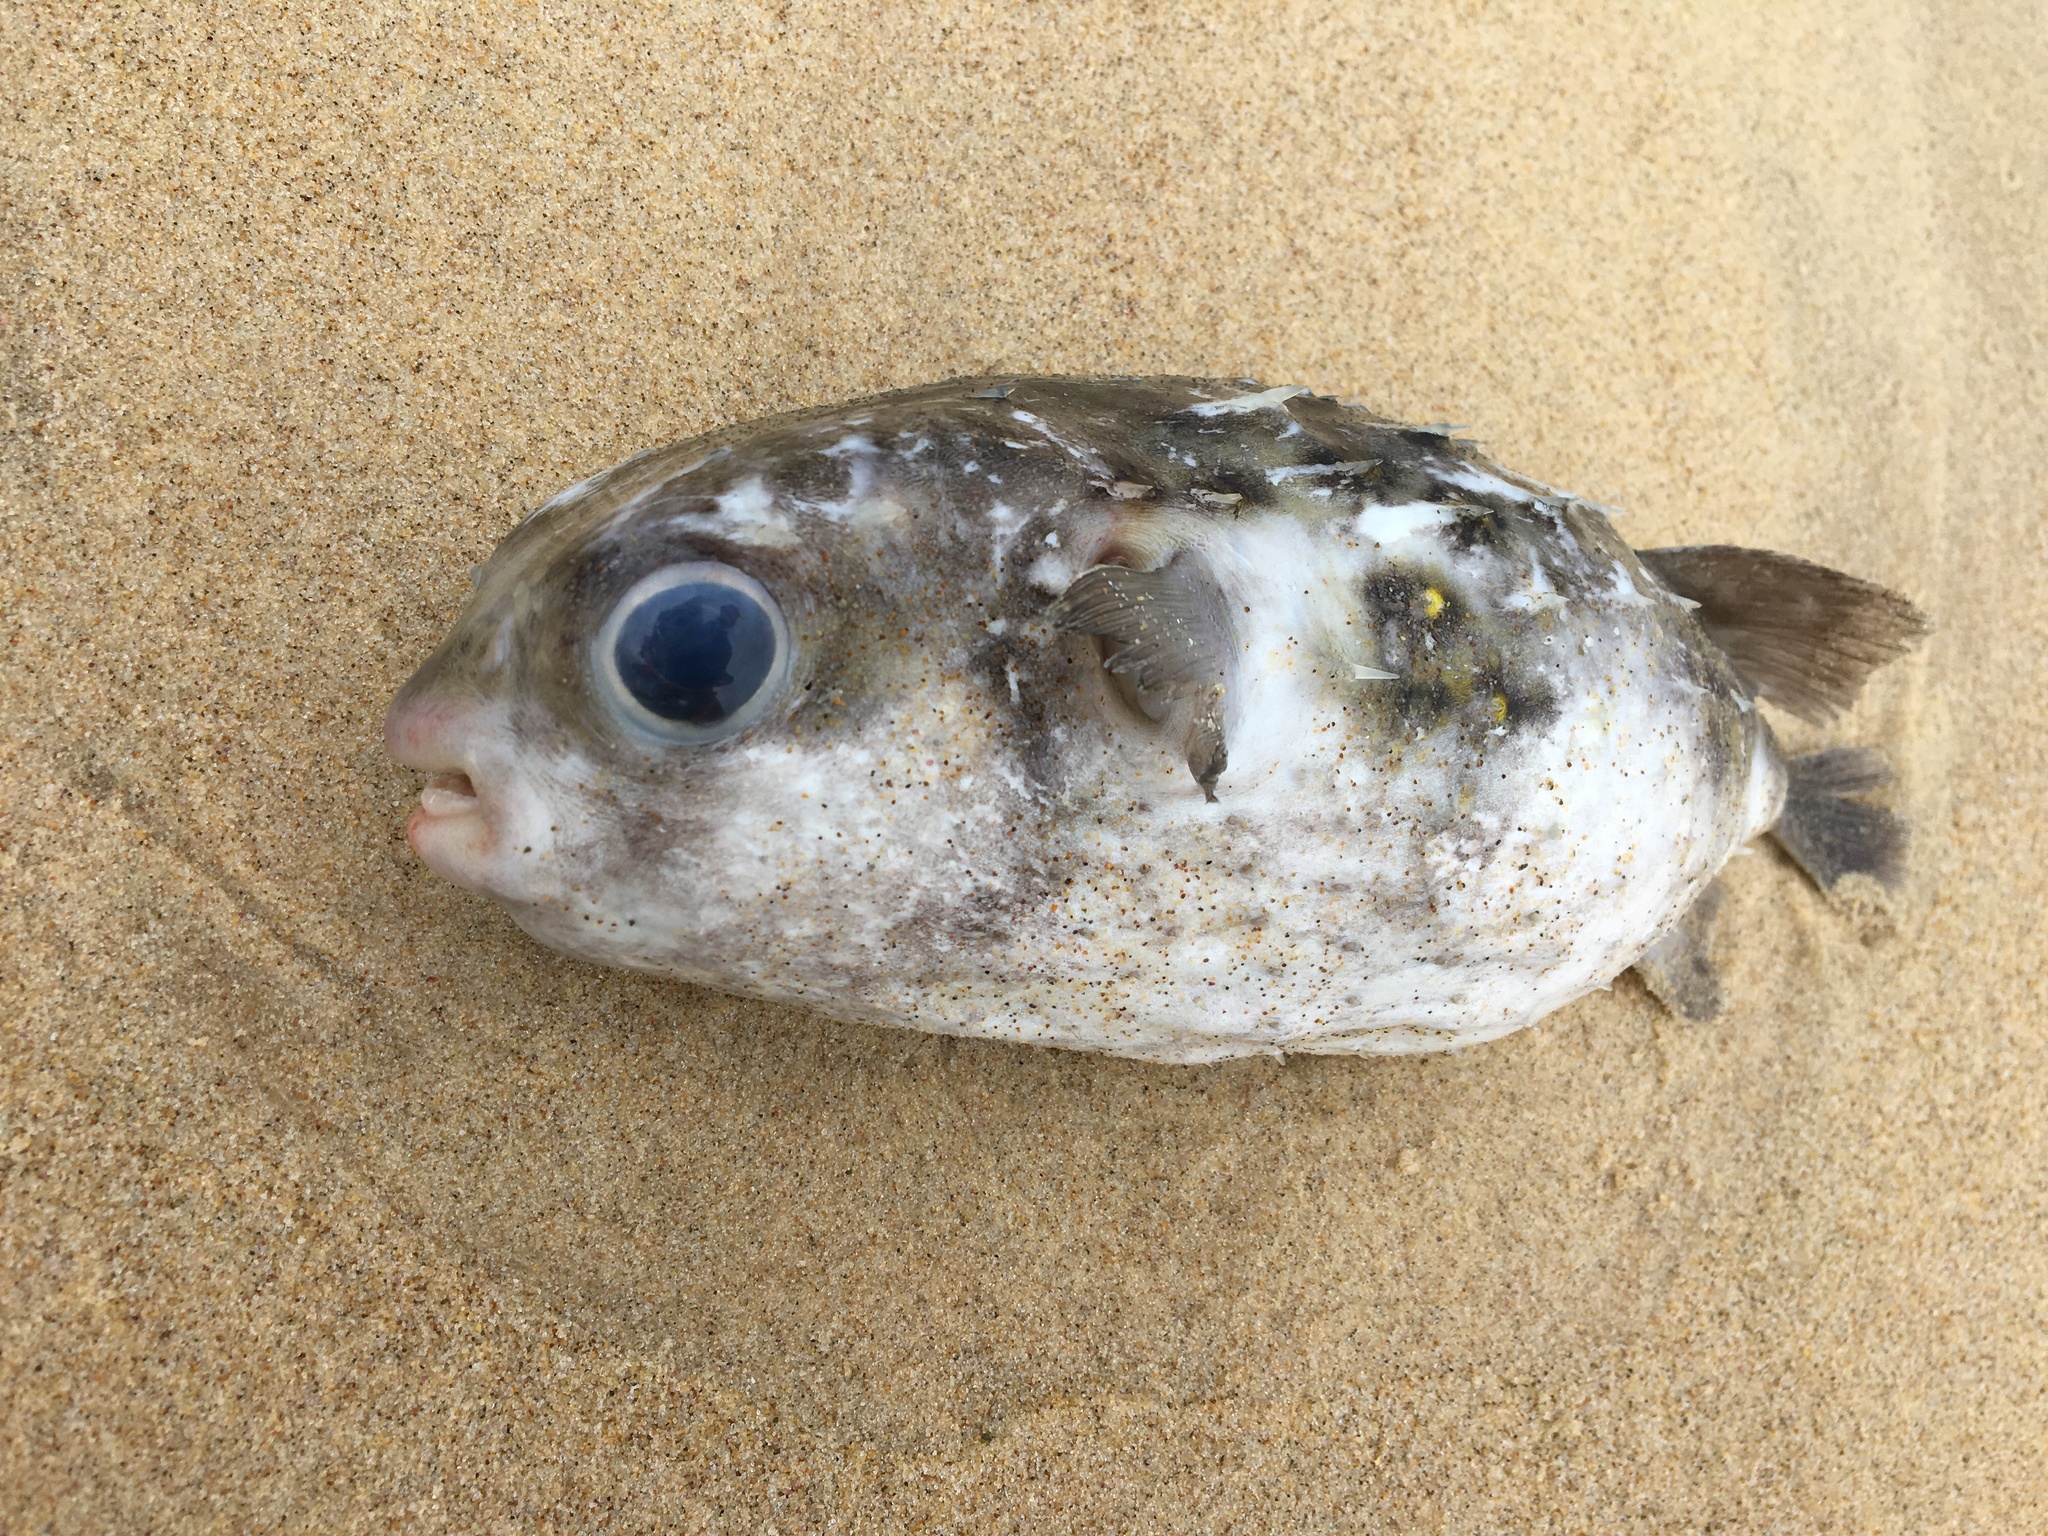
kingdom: Animalia
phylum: Chordata
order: Tetraodontiformes
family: Diodontidae
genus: Allomycterus
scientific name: Allomycterus pilatus
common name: No common name
